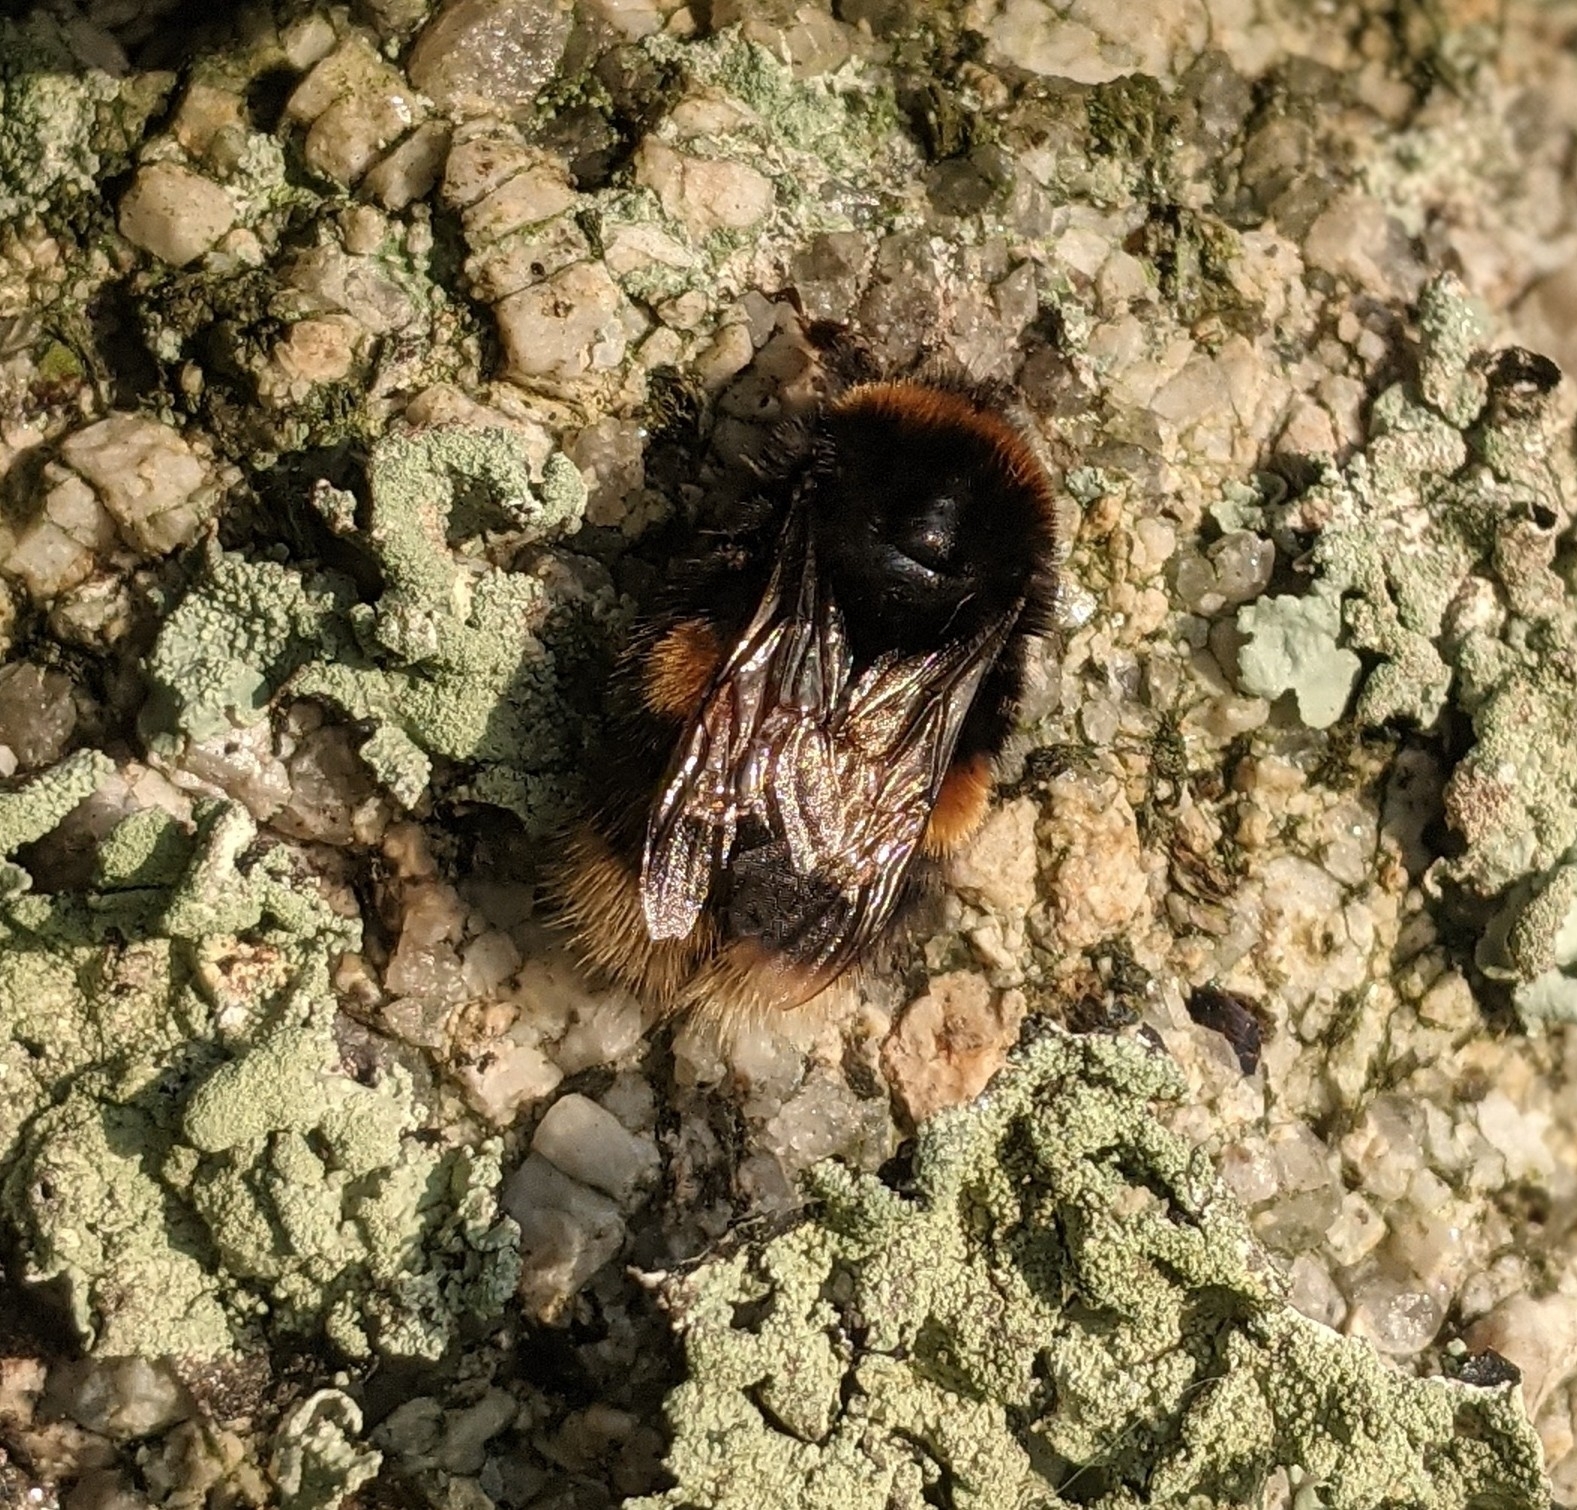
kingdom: Animalia
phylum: Arthropoda
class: Insecta
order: Hymenoptera
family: Apidae
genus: Bombus
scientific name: Bombus terrestris
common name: Buff-tailed bumblebee
